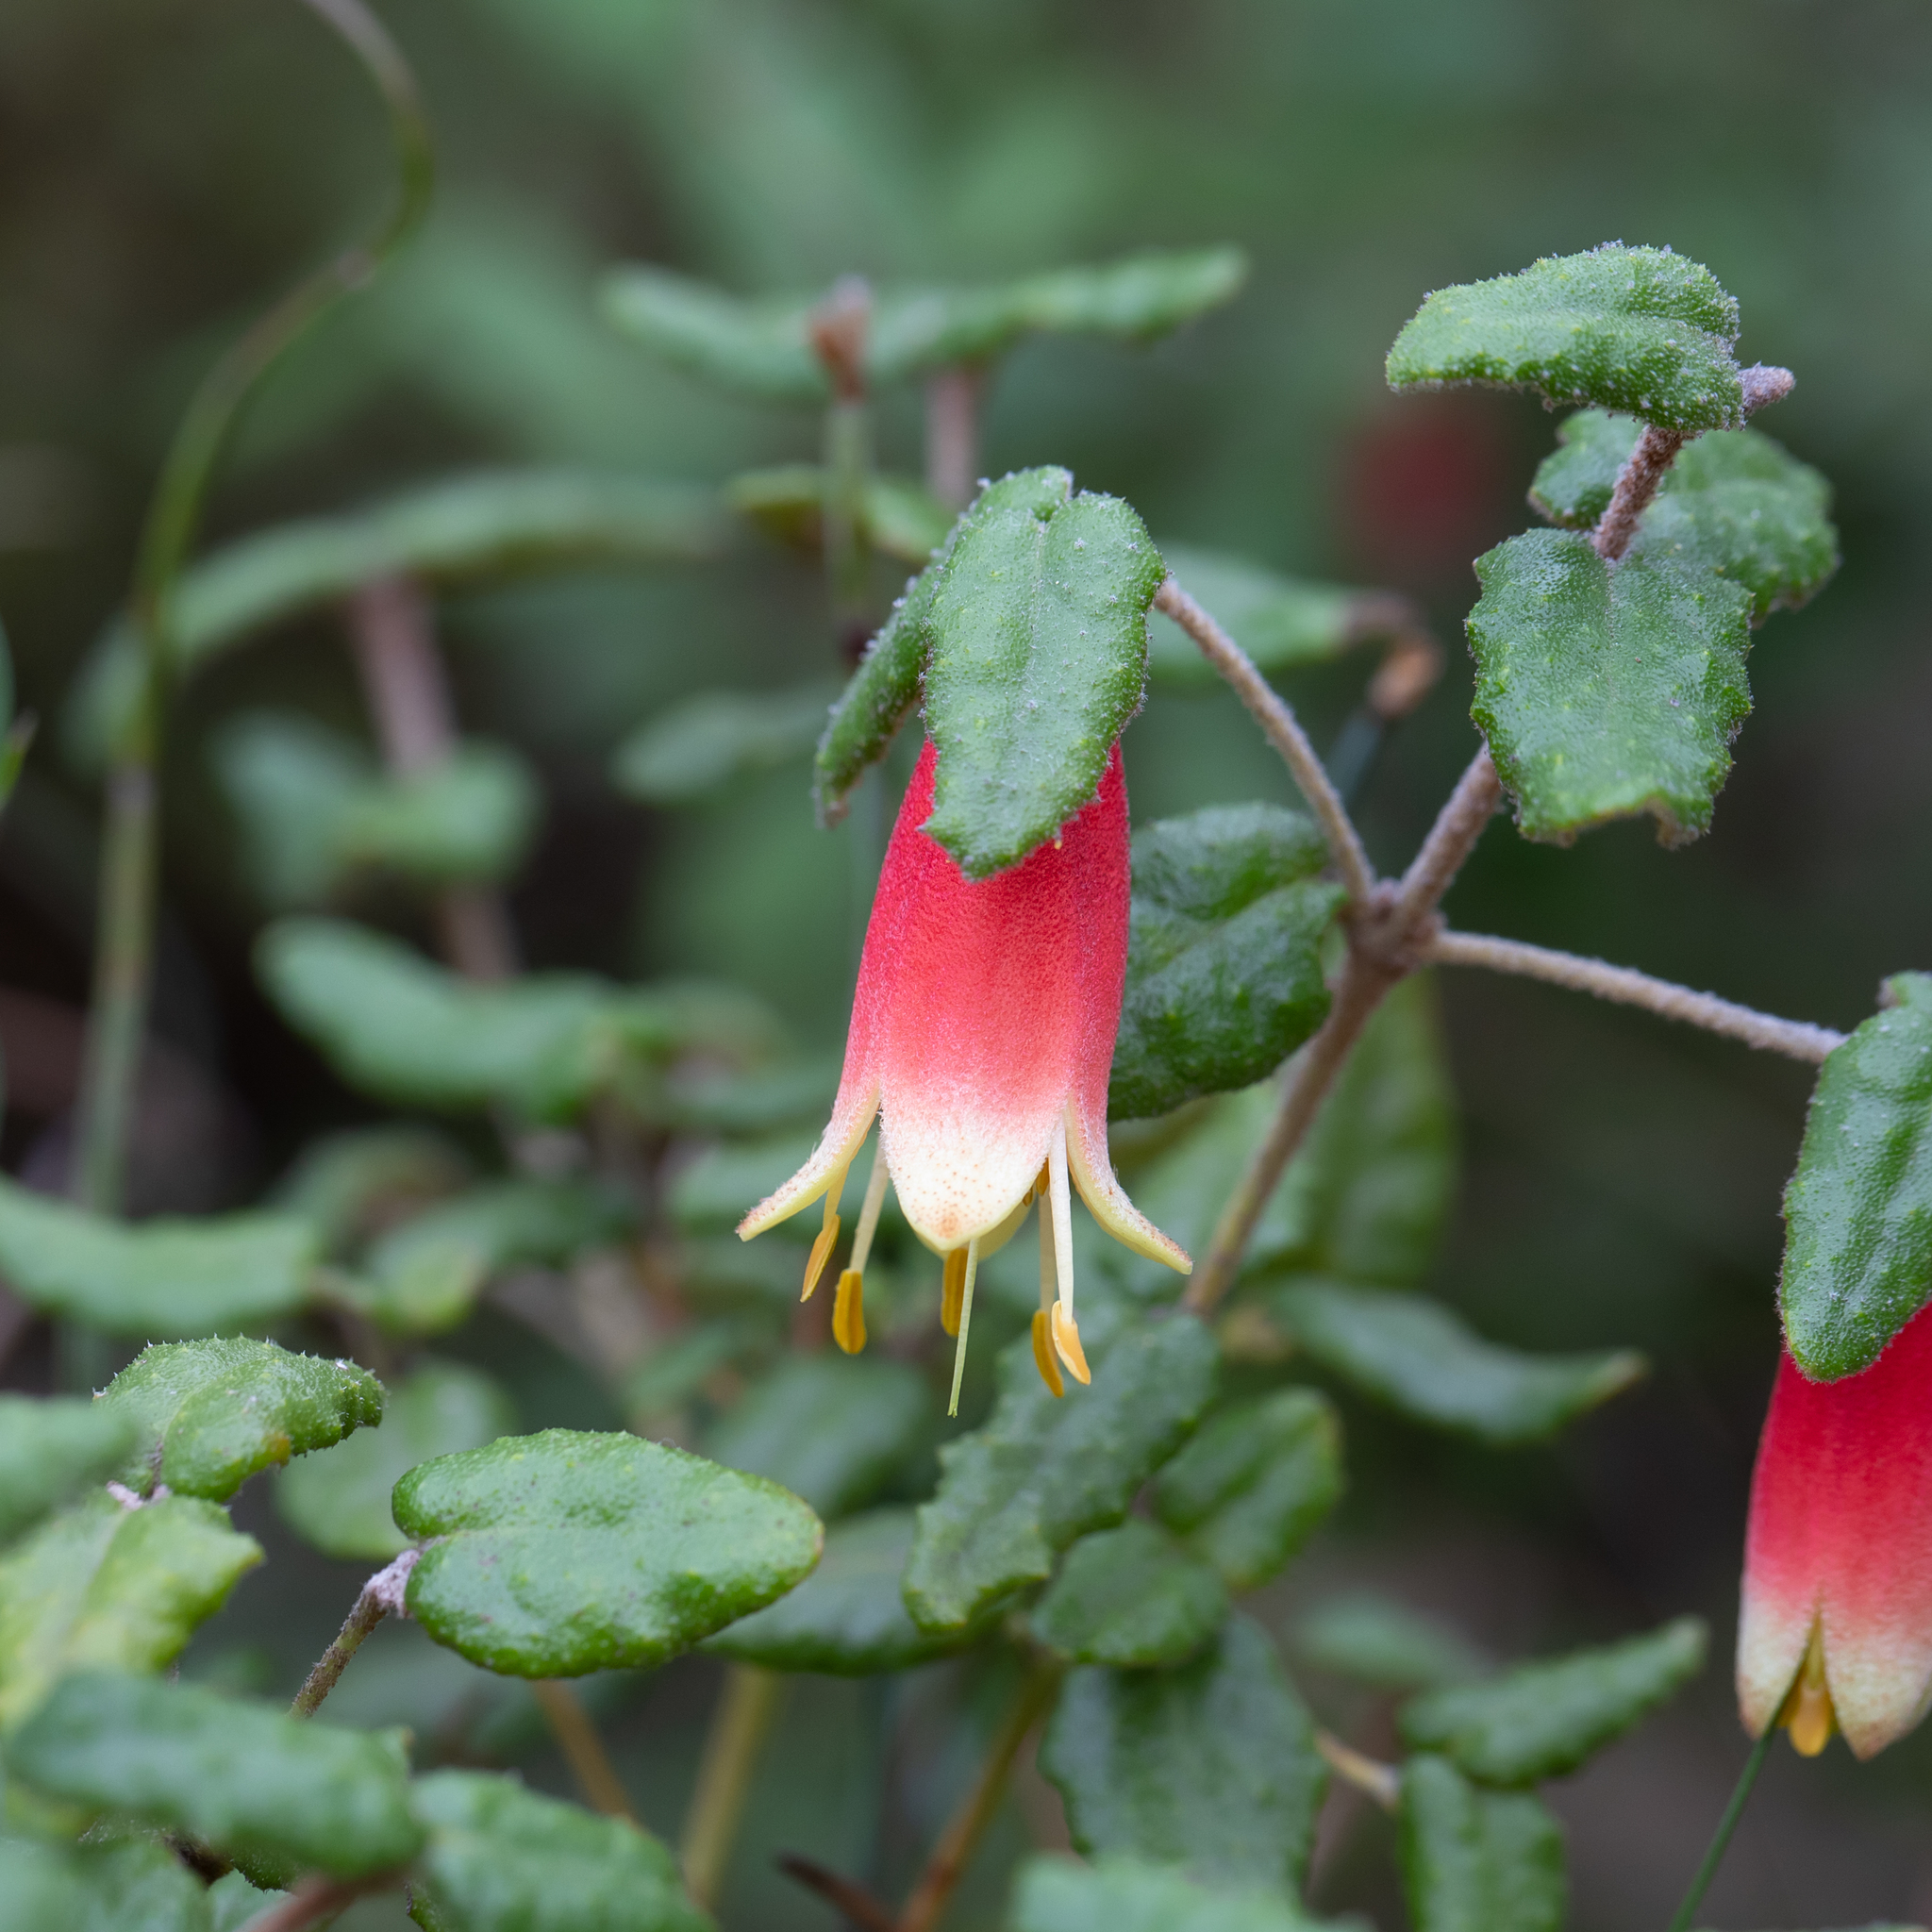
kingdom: Plantae
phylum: Tracheophyta
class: Magnoliopsida
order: Sapindales
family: Rutaceae
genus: Correa
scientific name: Correa reflexa
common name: Common correa
